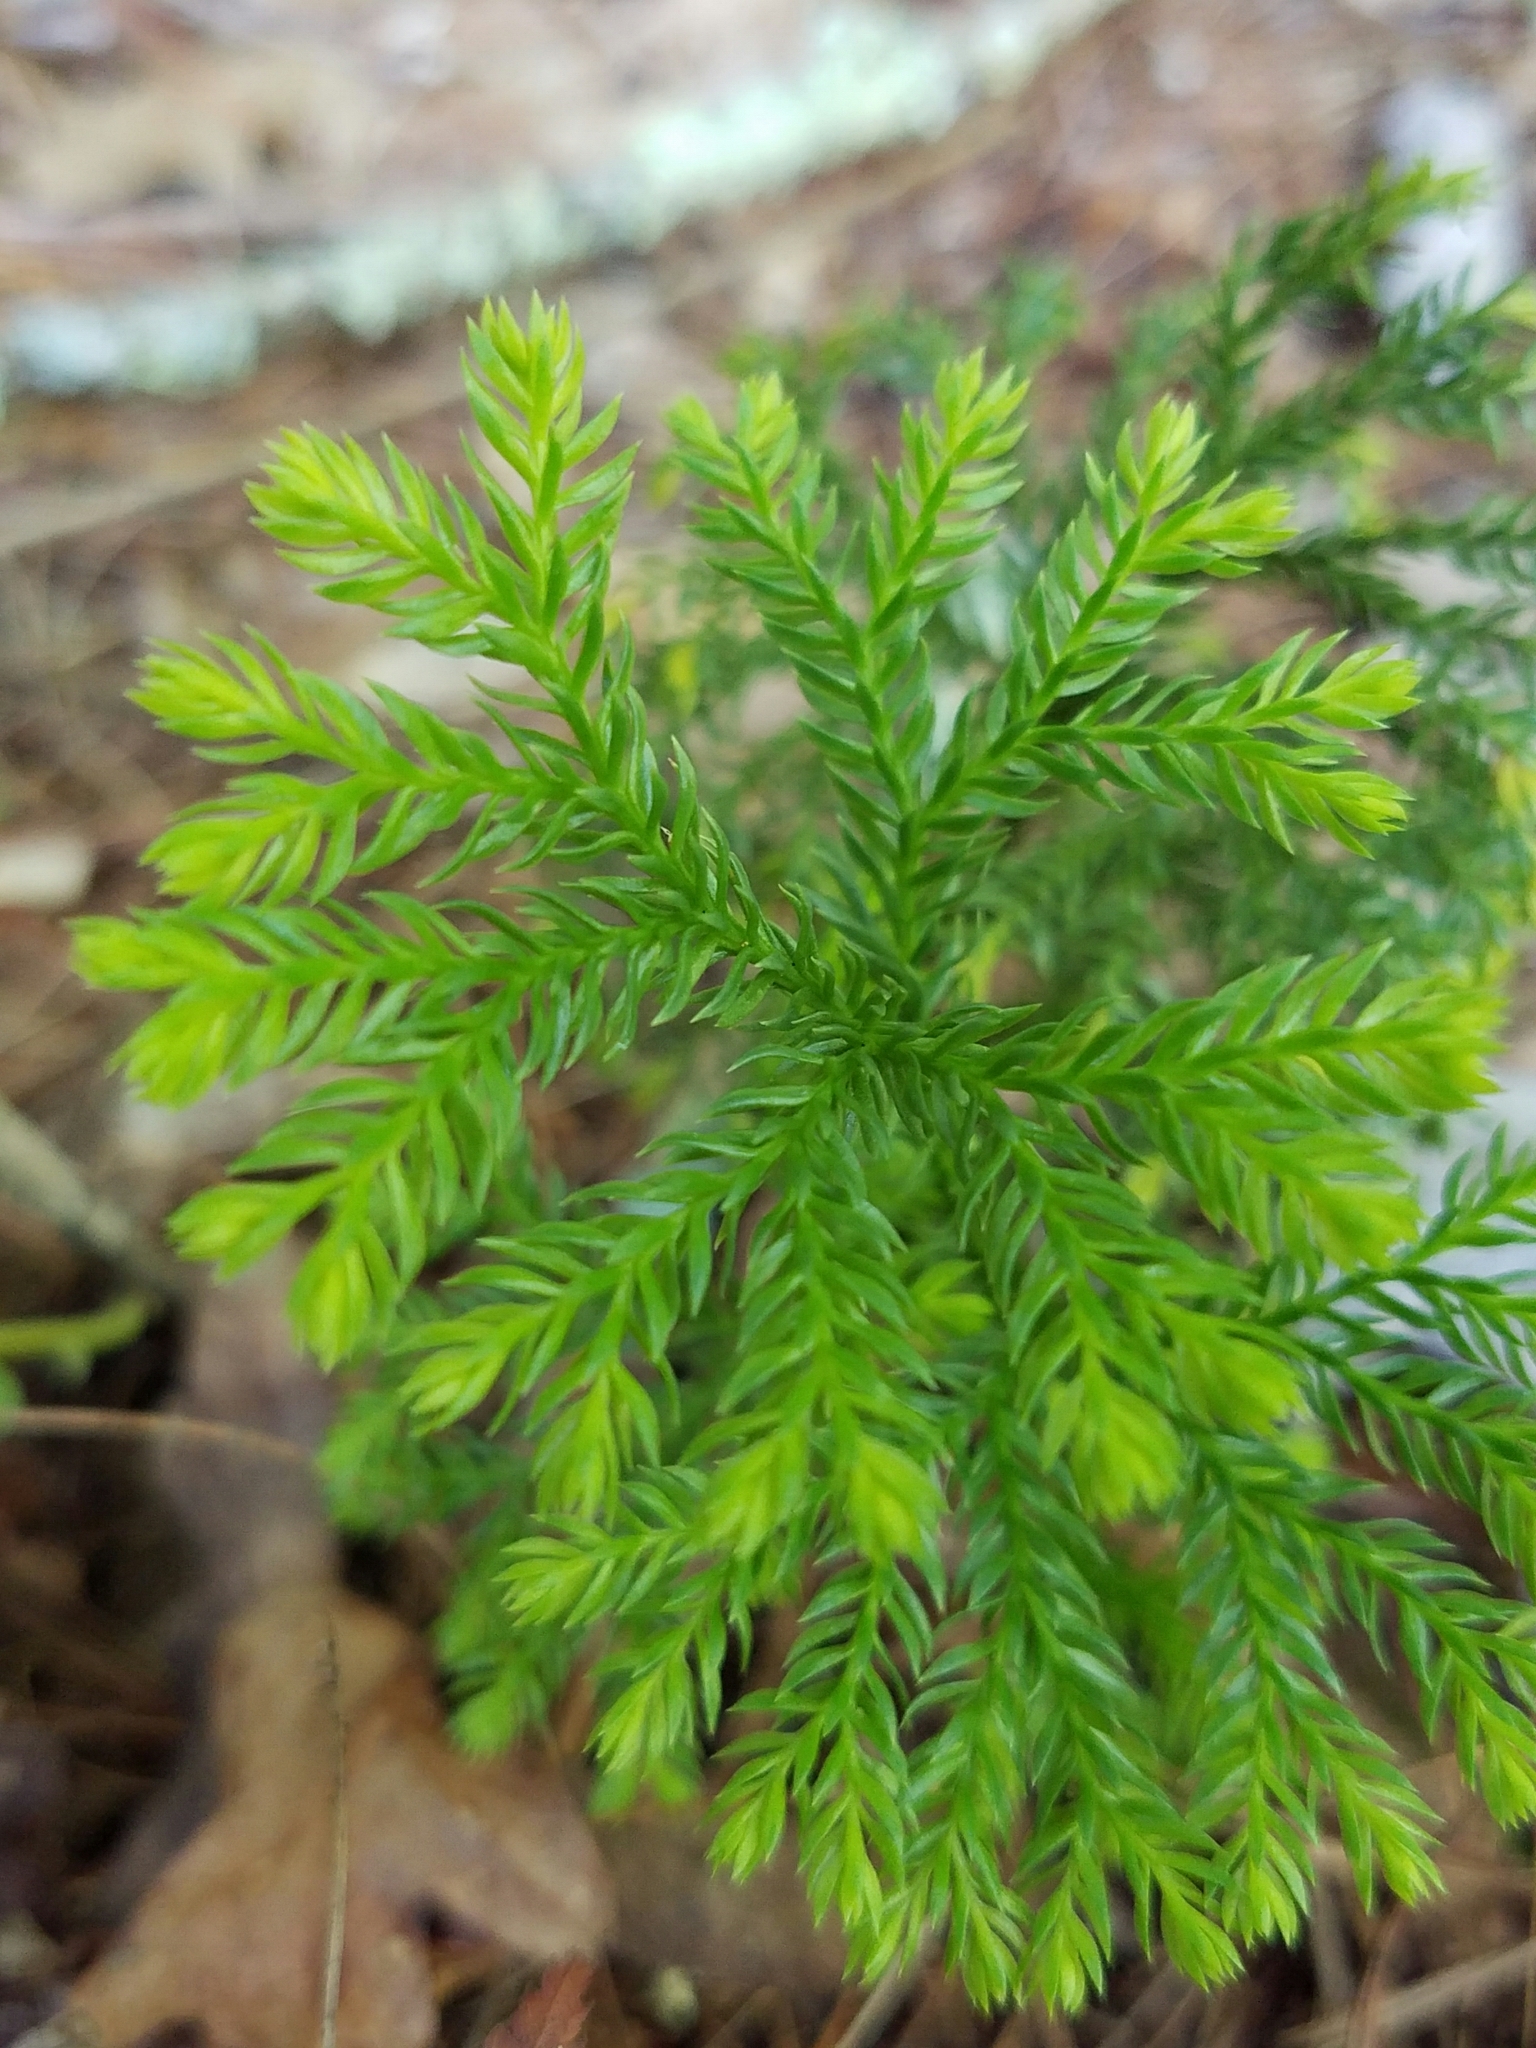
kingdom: Plantae
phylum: Tracheophyta
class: Lycopodiopsida
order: Lycopodiales
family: Lycopodiaceae
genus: Dendrolycopodium
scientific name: Dendrolycopodium dendroideum
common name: Northern tree-clubmoss
